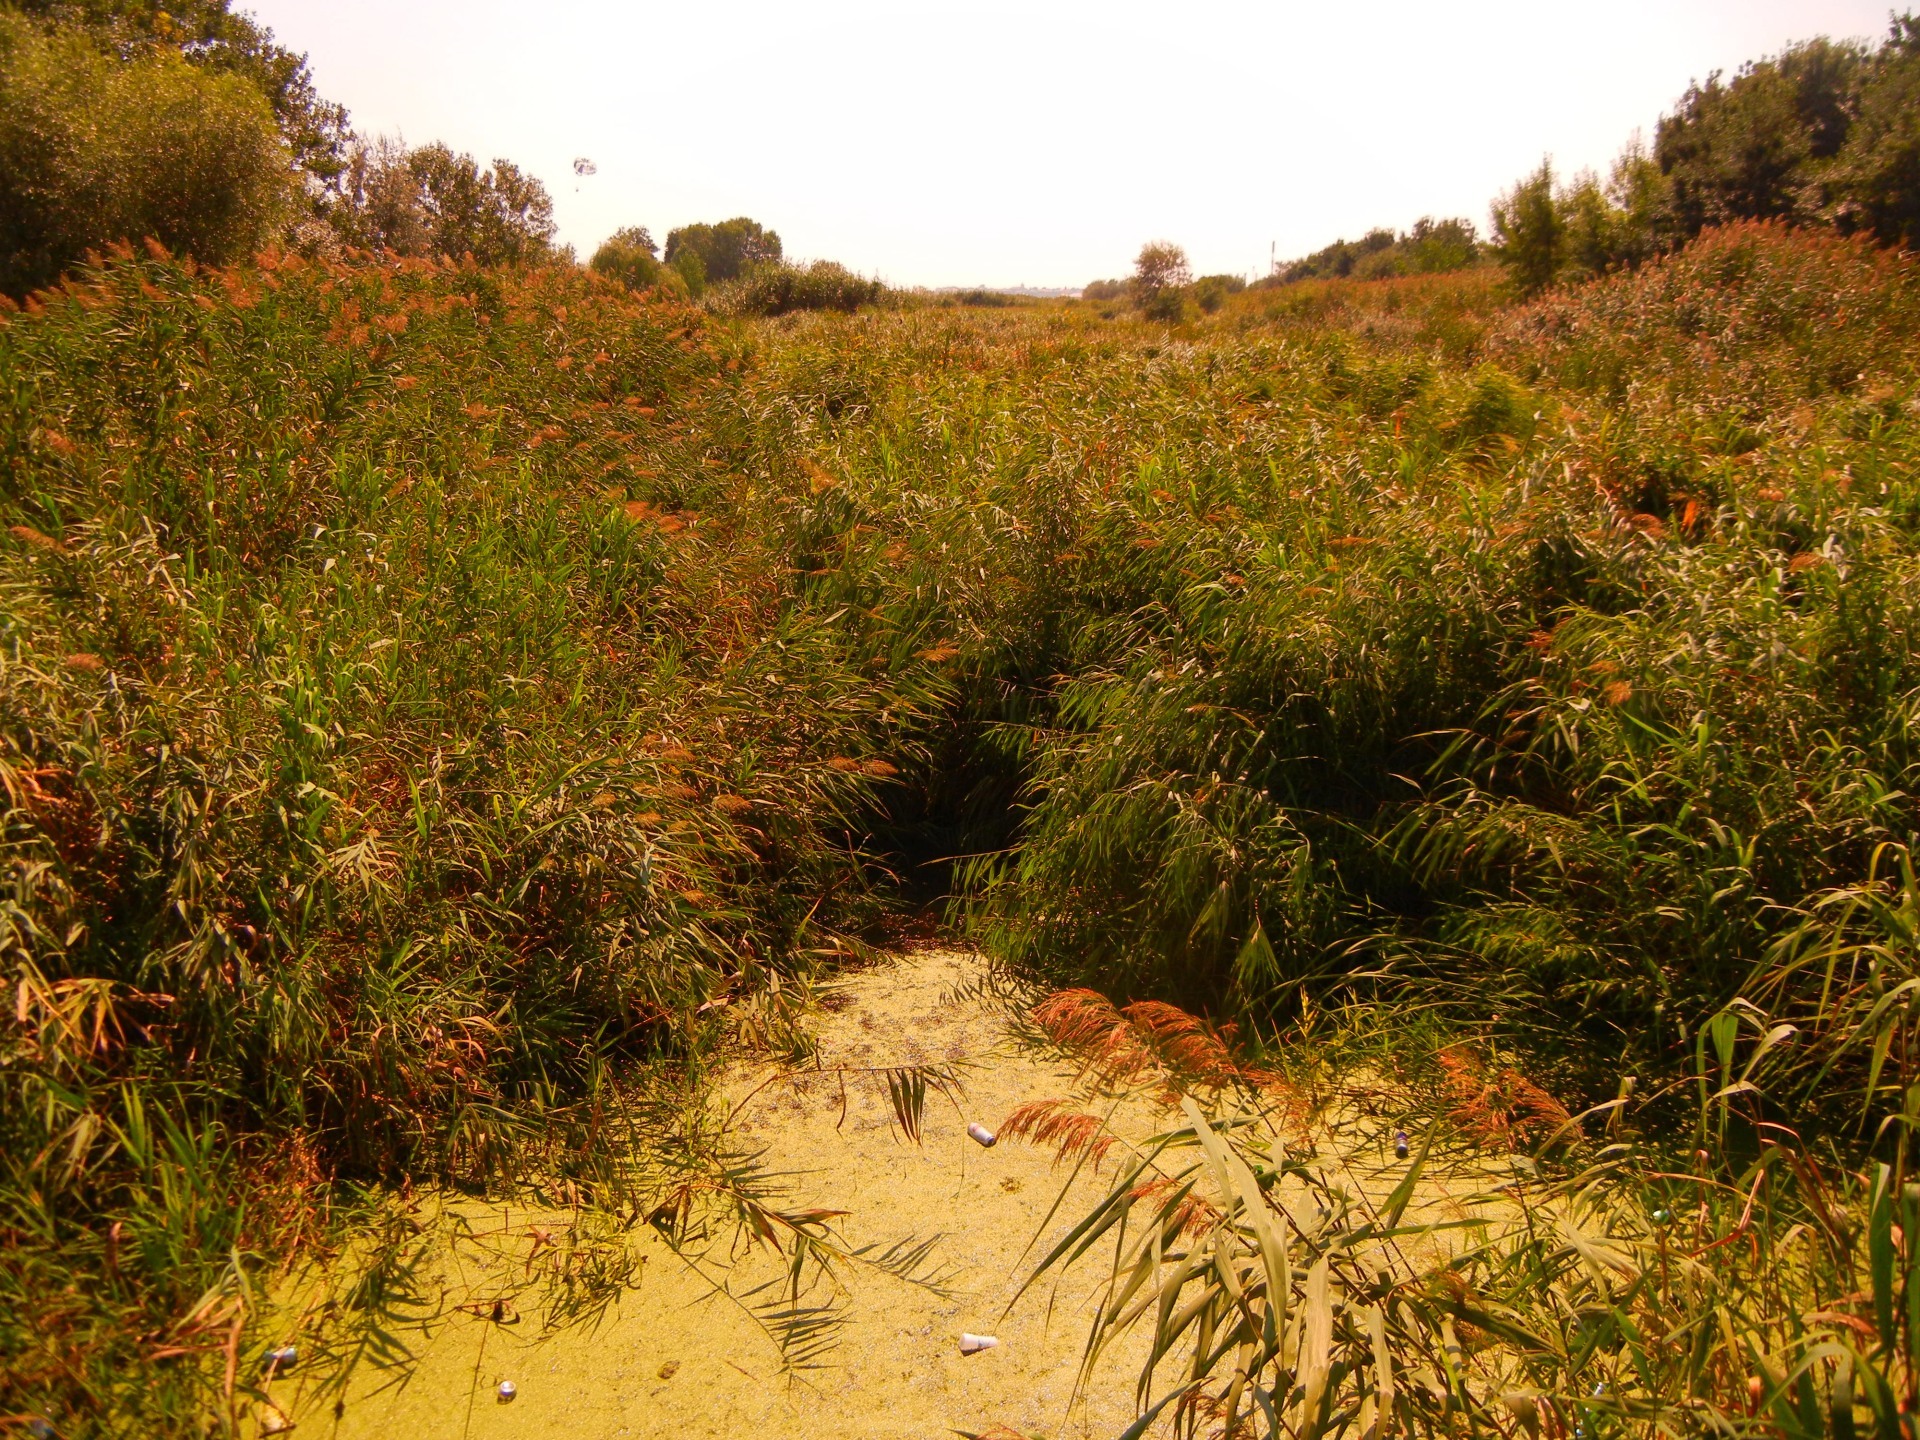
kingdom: Plantae
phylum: Tracheophyta
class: Liliopsida
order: Poales
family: Poaceae
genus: Phragmites
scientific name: Phragmites australis
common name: Common reed
